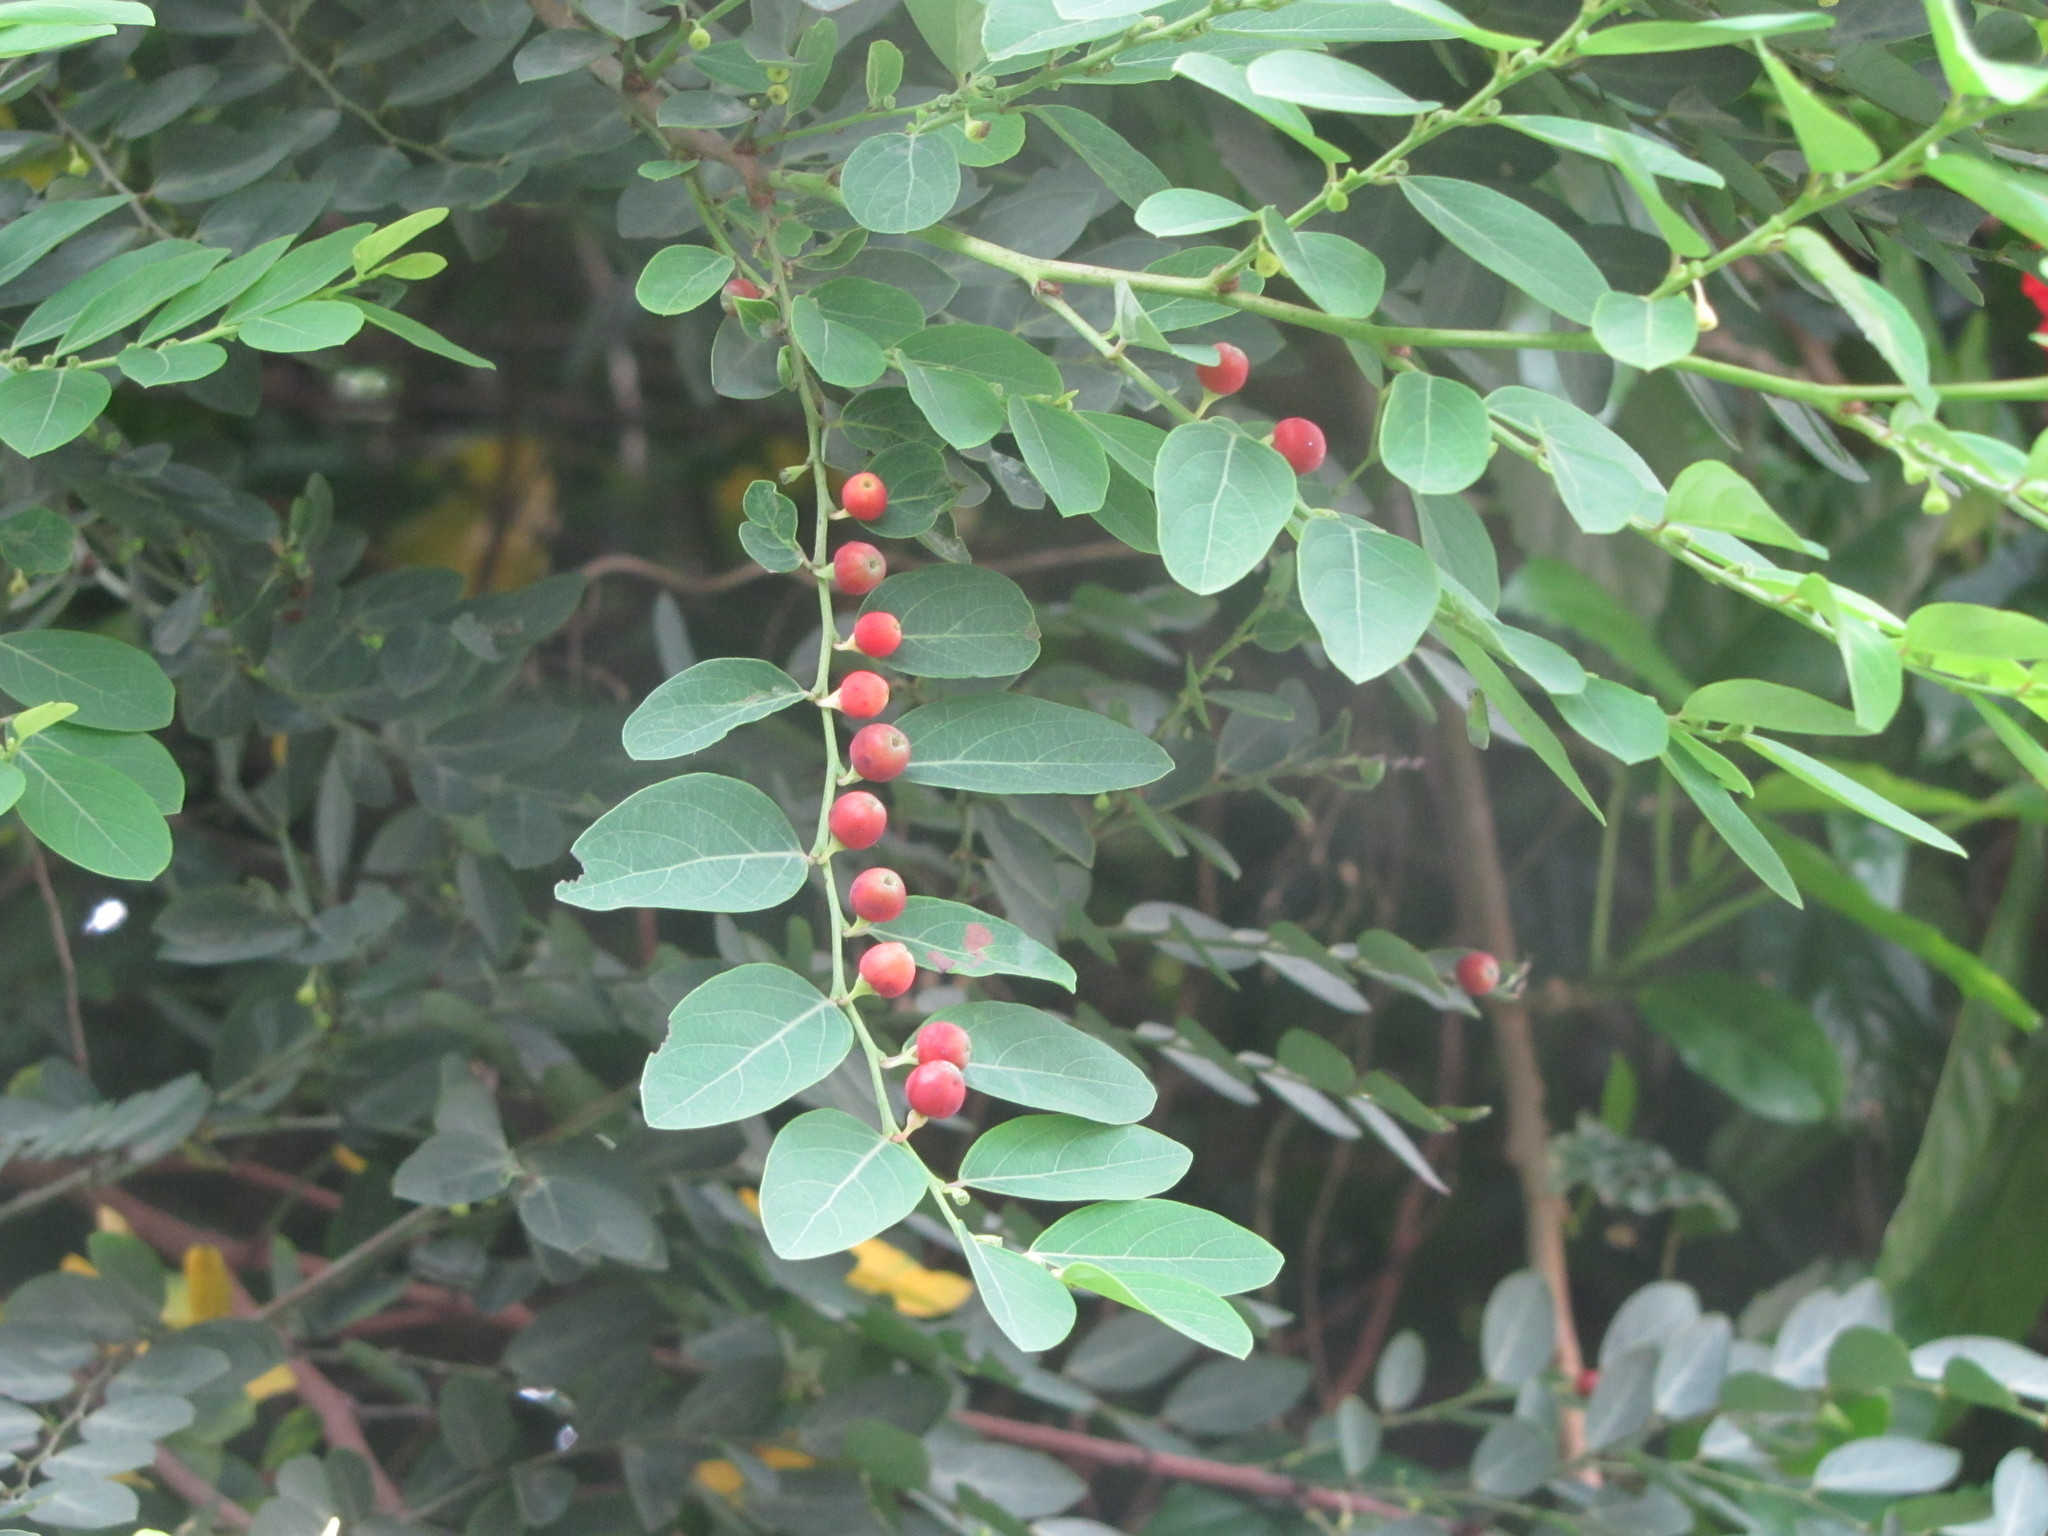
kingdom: Plantae
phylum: Tracheophyta
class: Magnoliopsida
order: Malpighiales
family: Phyllanthaceae
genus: Breynia
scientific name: Breynia vitis-idaea
